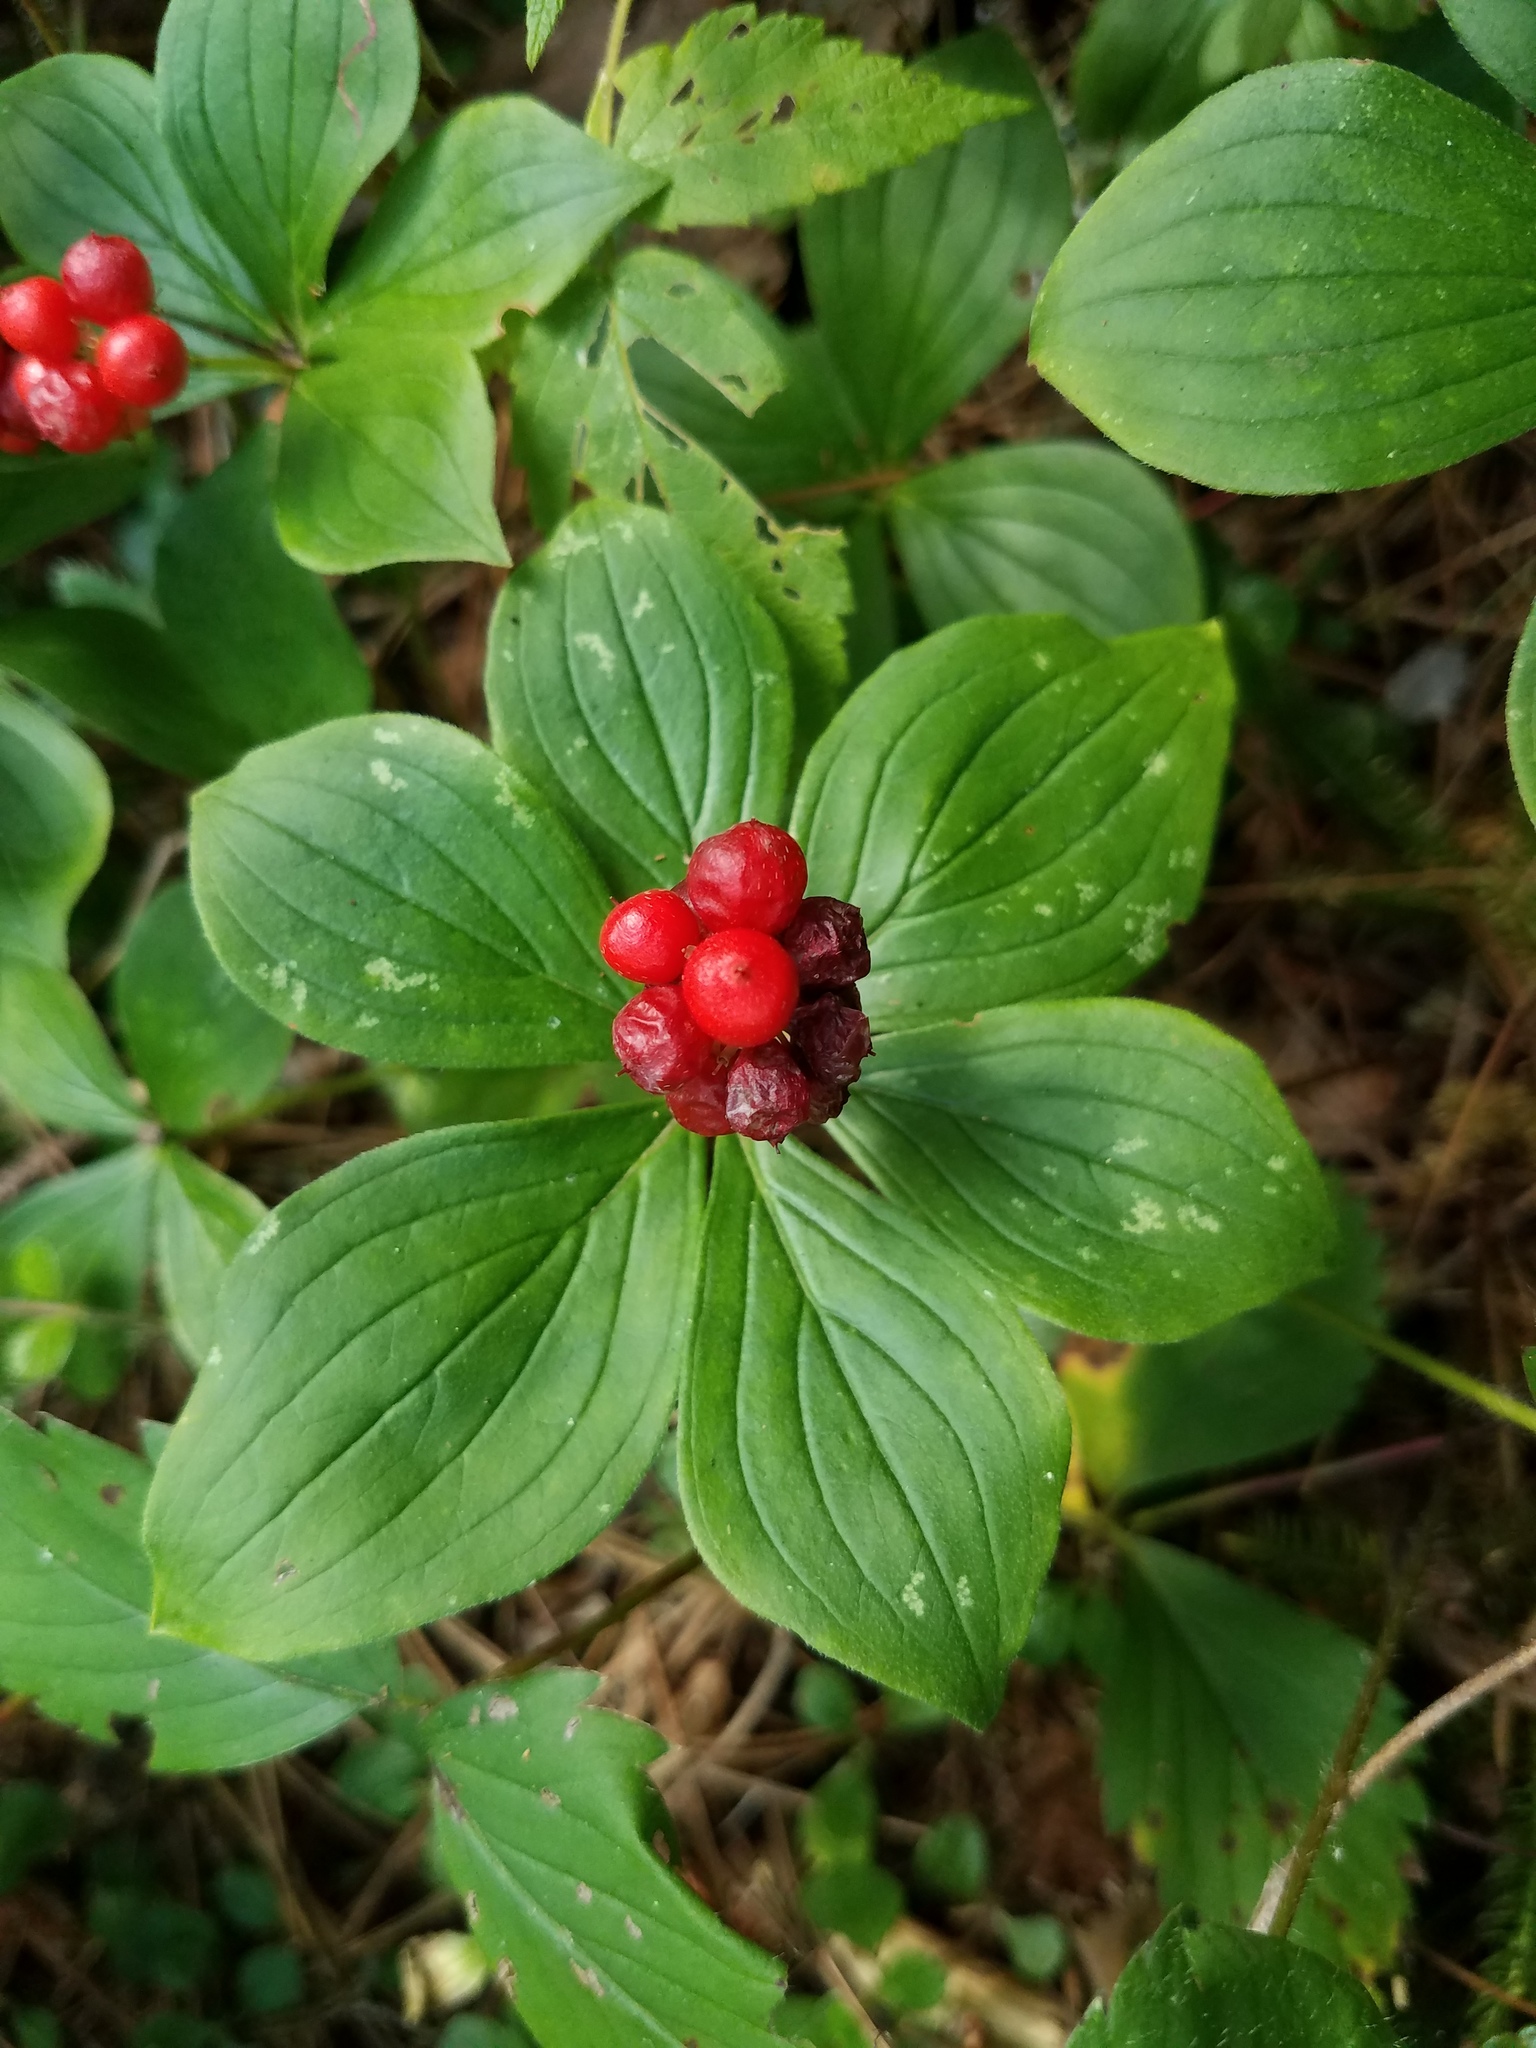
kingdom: Plantae
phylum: Tracheophyta
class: Magnoliopsida
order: Cornales
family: Cornaceae
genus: Cornus
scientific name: Cornus canadensis
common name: Creeping dogwood
